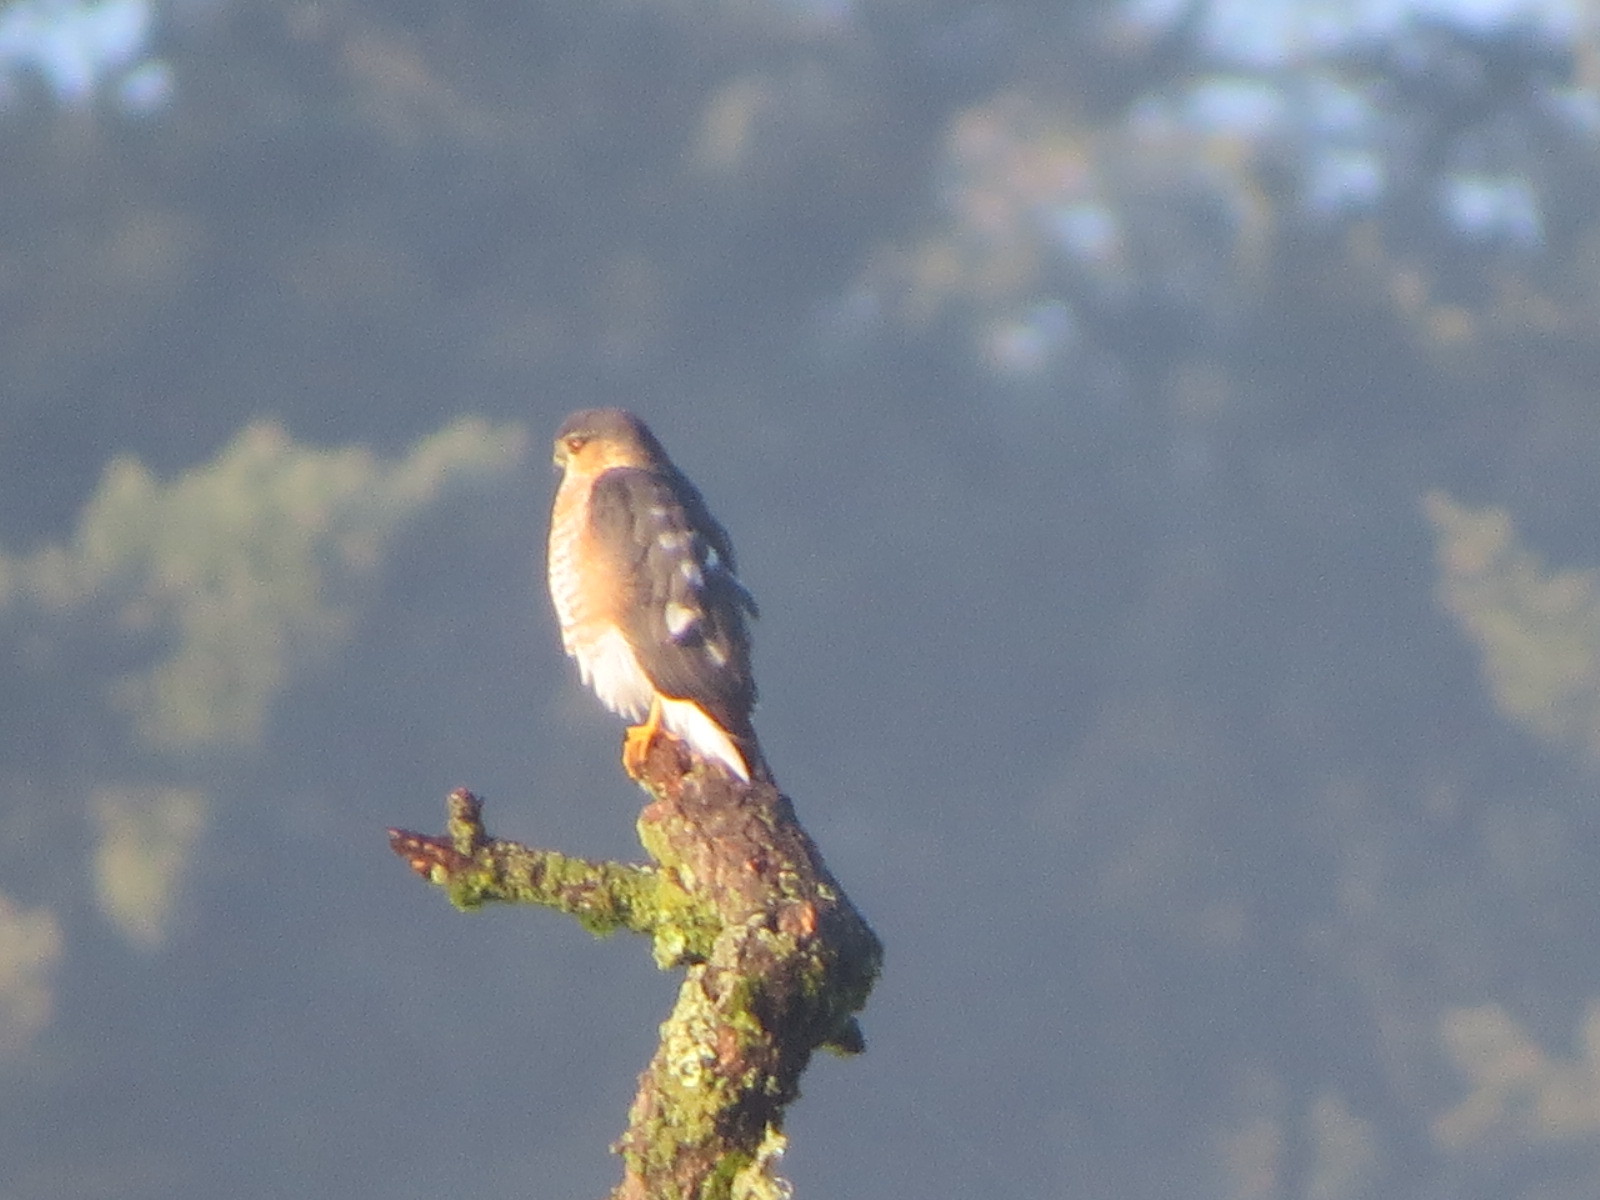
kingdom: Animalia
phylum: Chordata
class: Aves
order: Accipitriformes
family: Accipitridae
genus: Accipiter
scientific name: Accipiter striatus
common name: Sharp-shinned hawk
